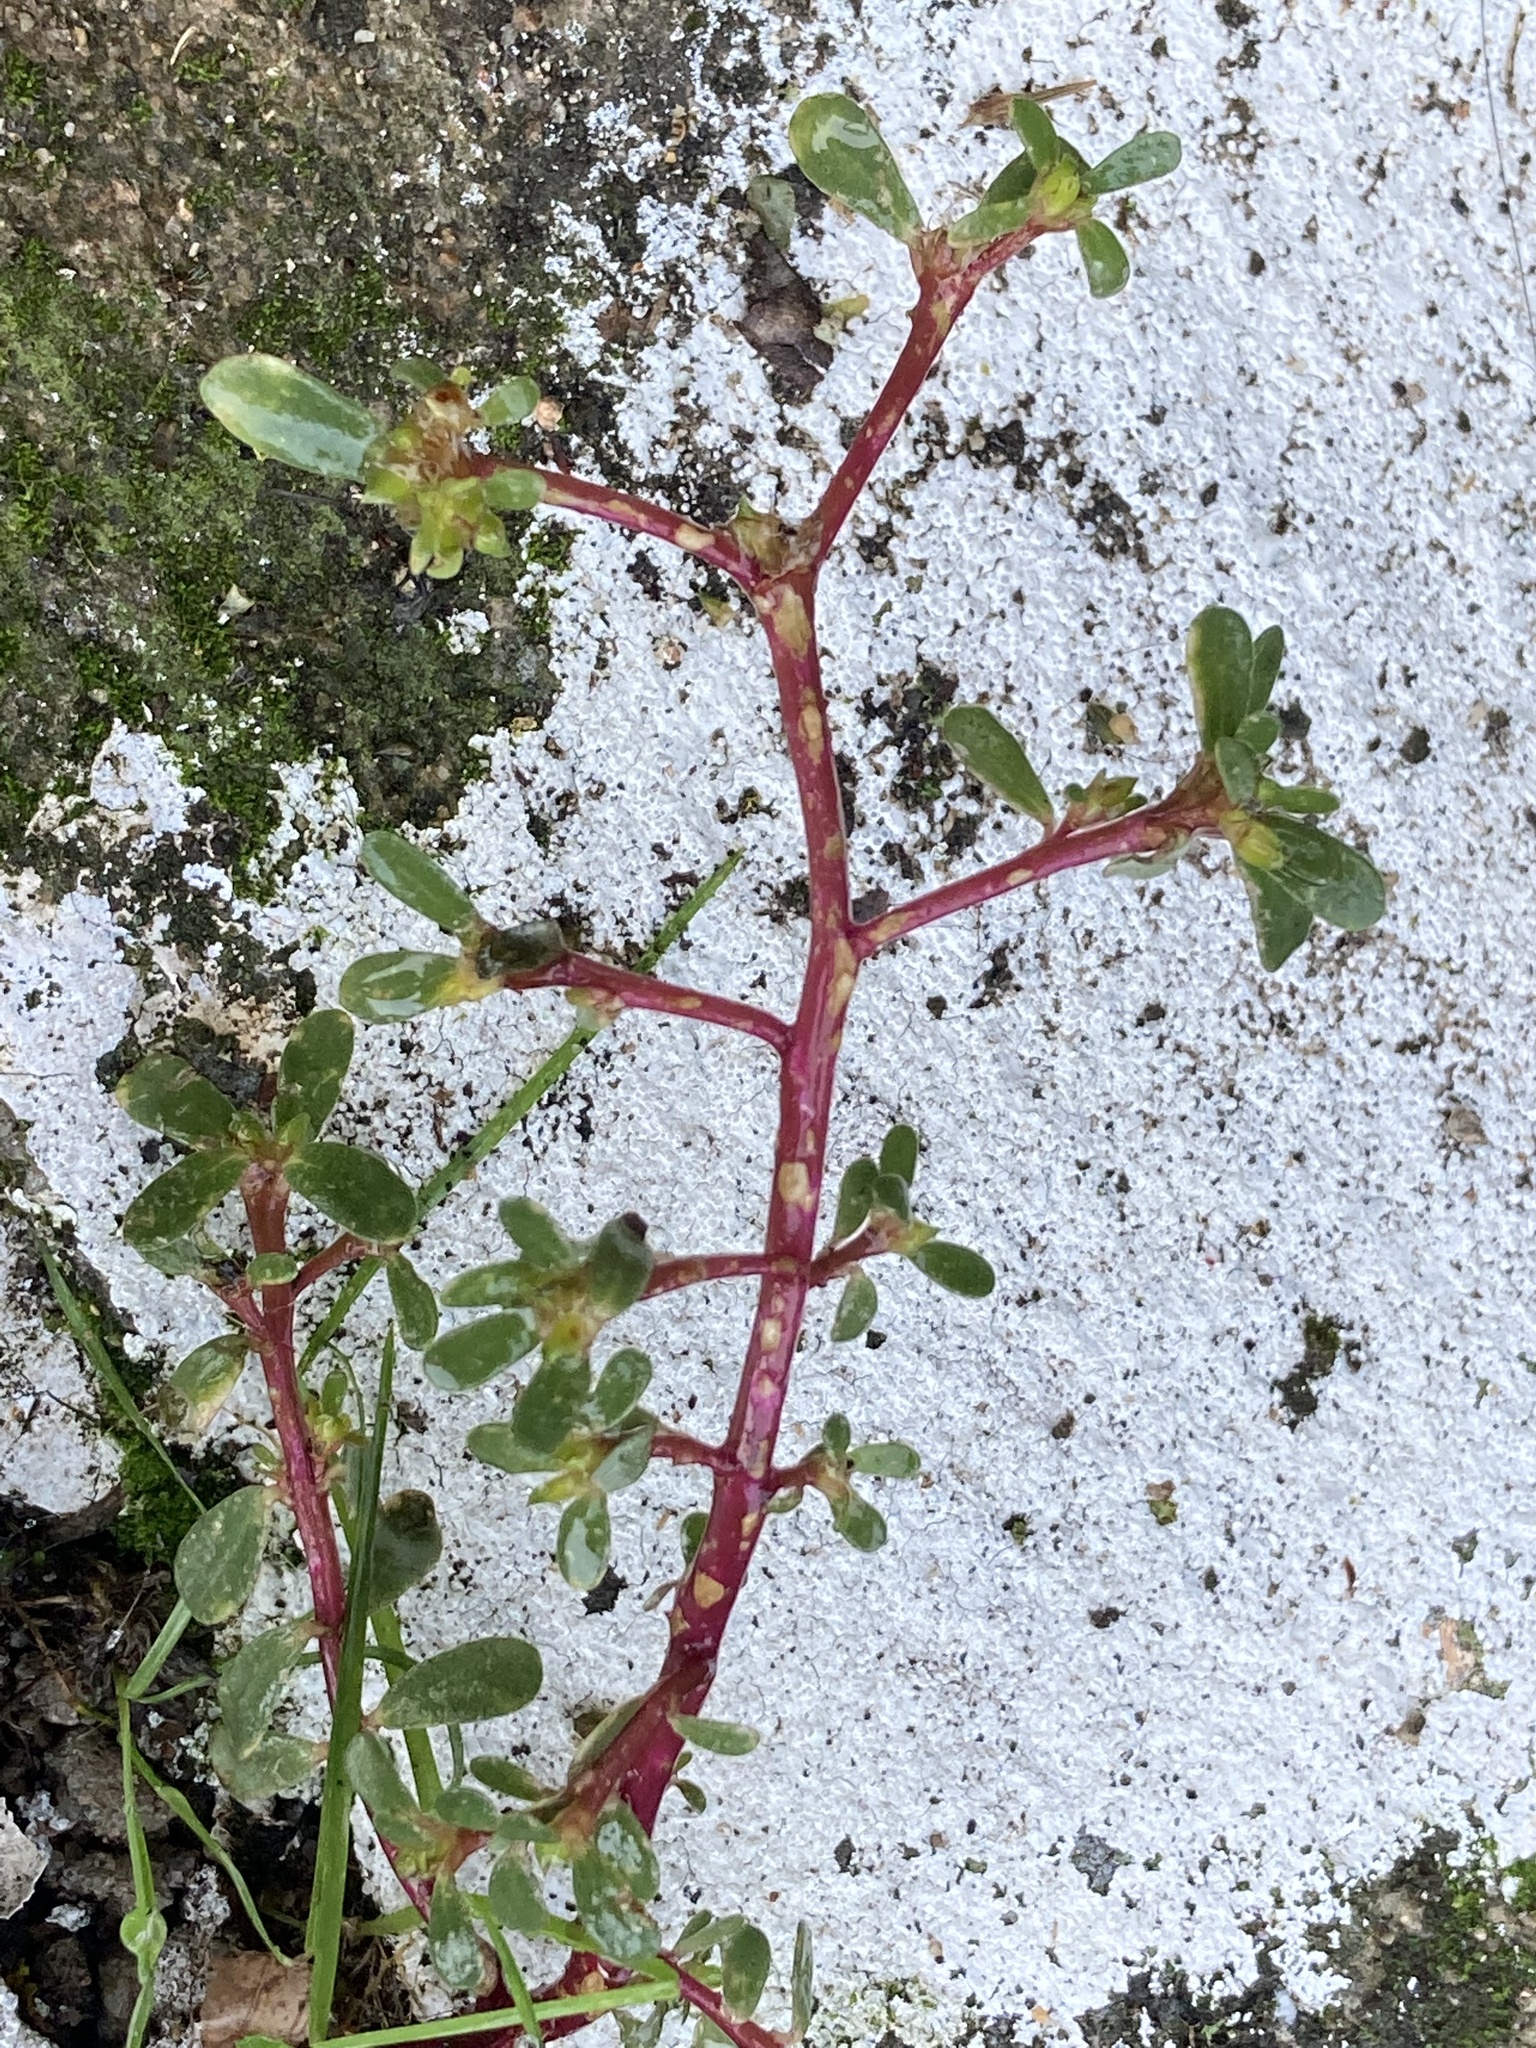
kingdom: Plantae
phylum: Tracheophyta
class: Magnoliopsida
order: Caryophyllales
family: Portulacaceae
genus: Portulaca
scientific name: Portulaca oleracea
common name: Common purslane
